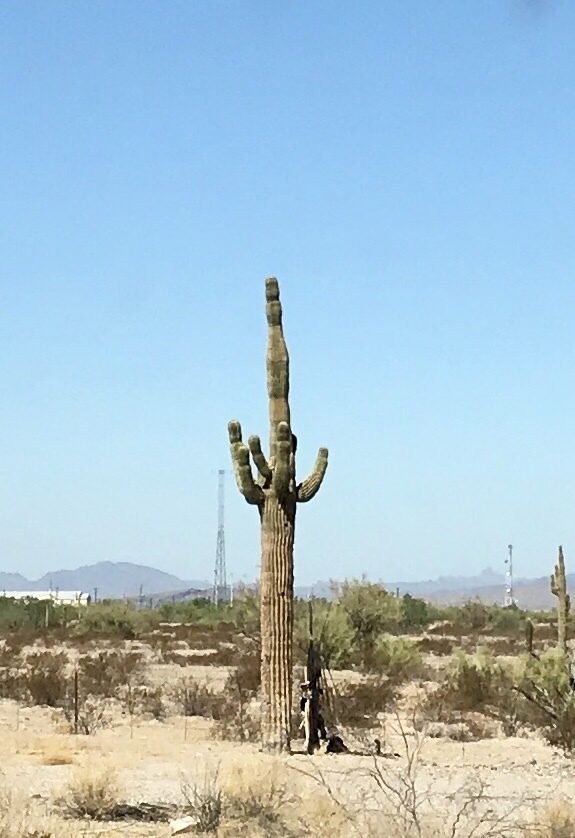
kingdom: Plantae
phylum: Tracheophyta
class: Magnoliopsida
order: Caryophyllales
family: Cactaceae
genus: Carnegiea
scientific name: Carnegiea gigantea
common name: Saguaro
